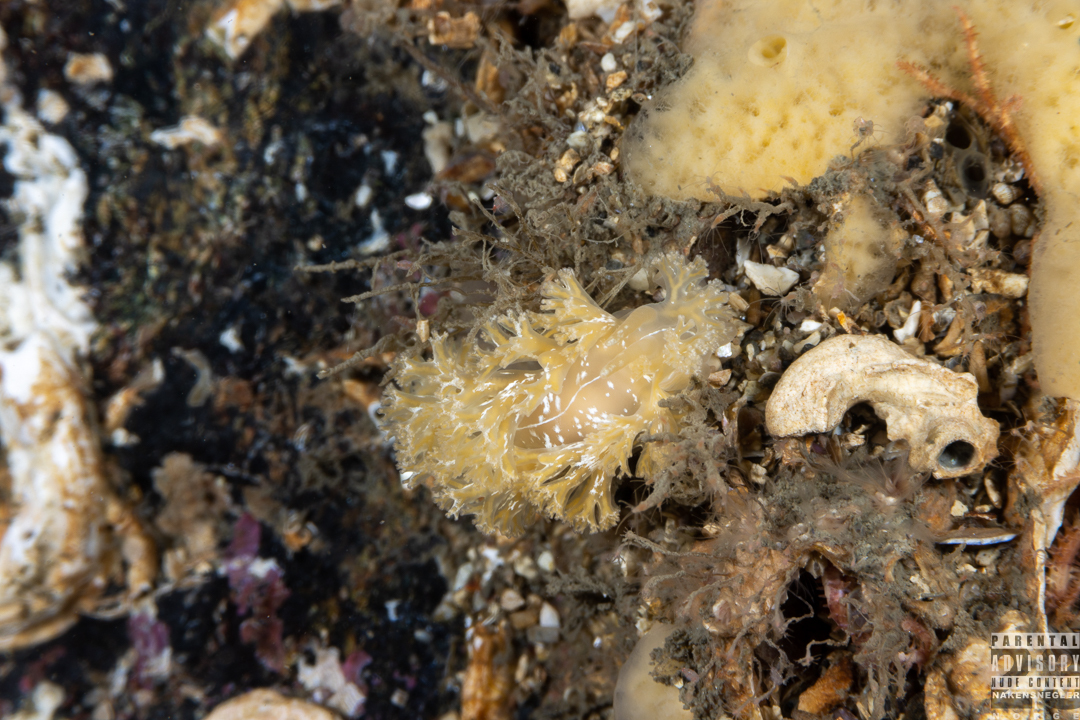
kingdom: Animalia
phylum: Mollusca
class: Gastropoda
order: Nudibranchia
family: Heroidae
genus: Hero
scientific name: Hero formosa
